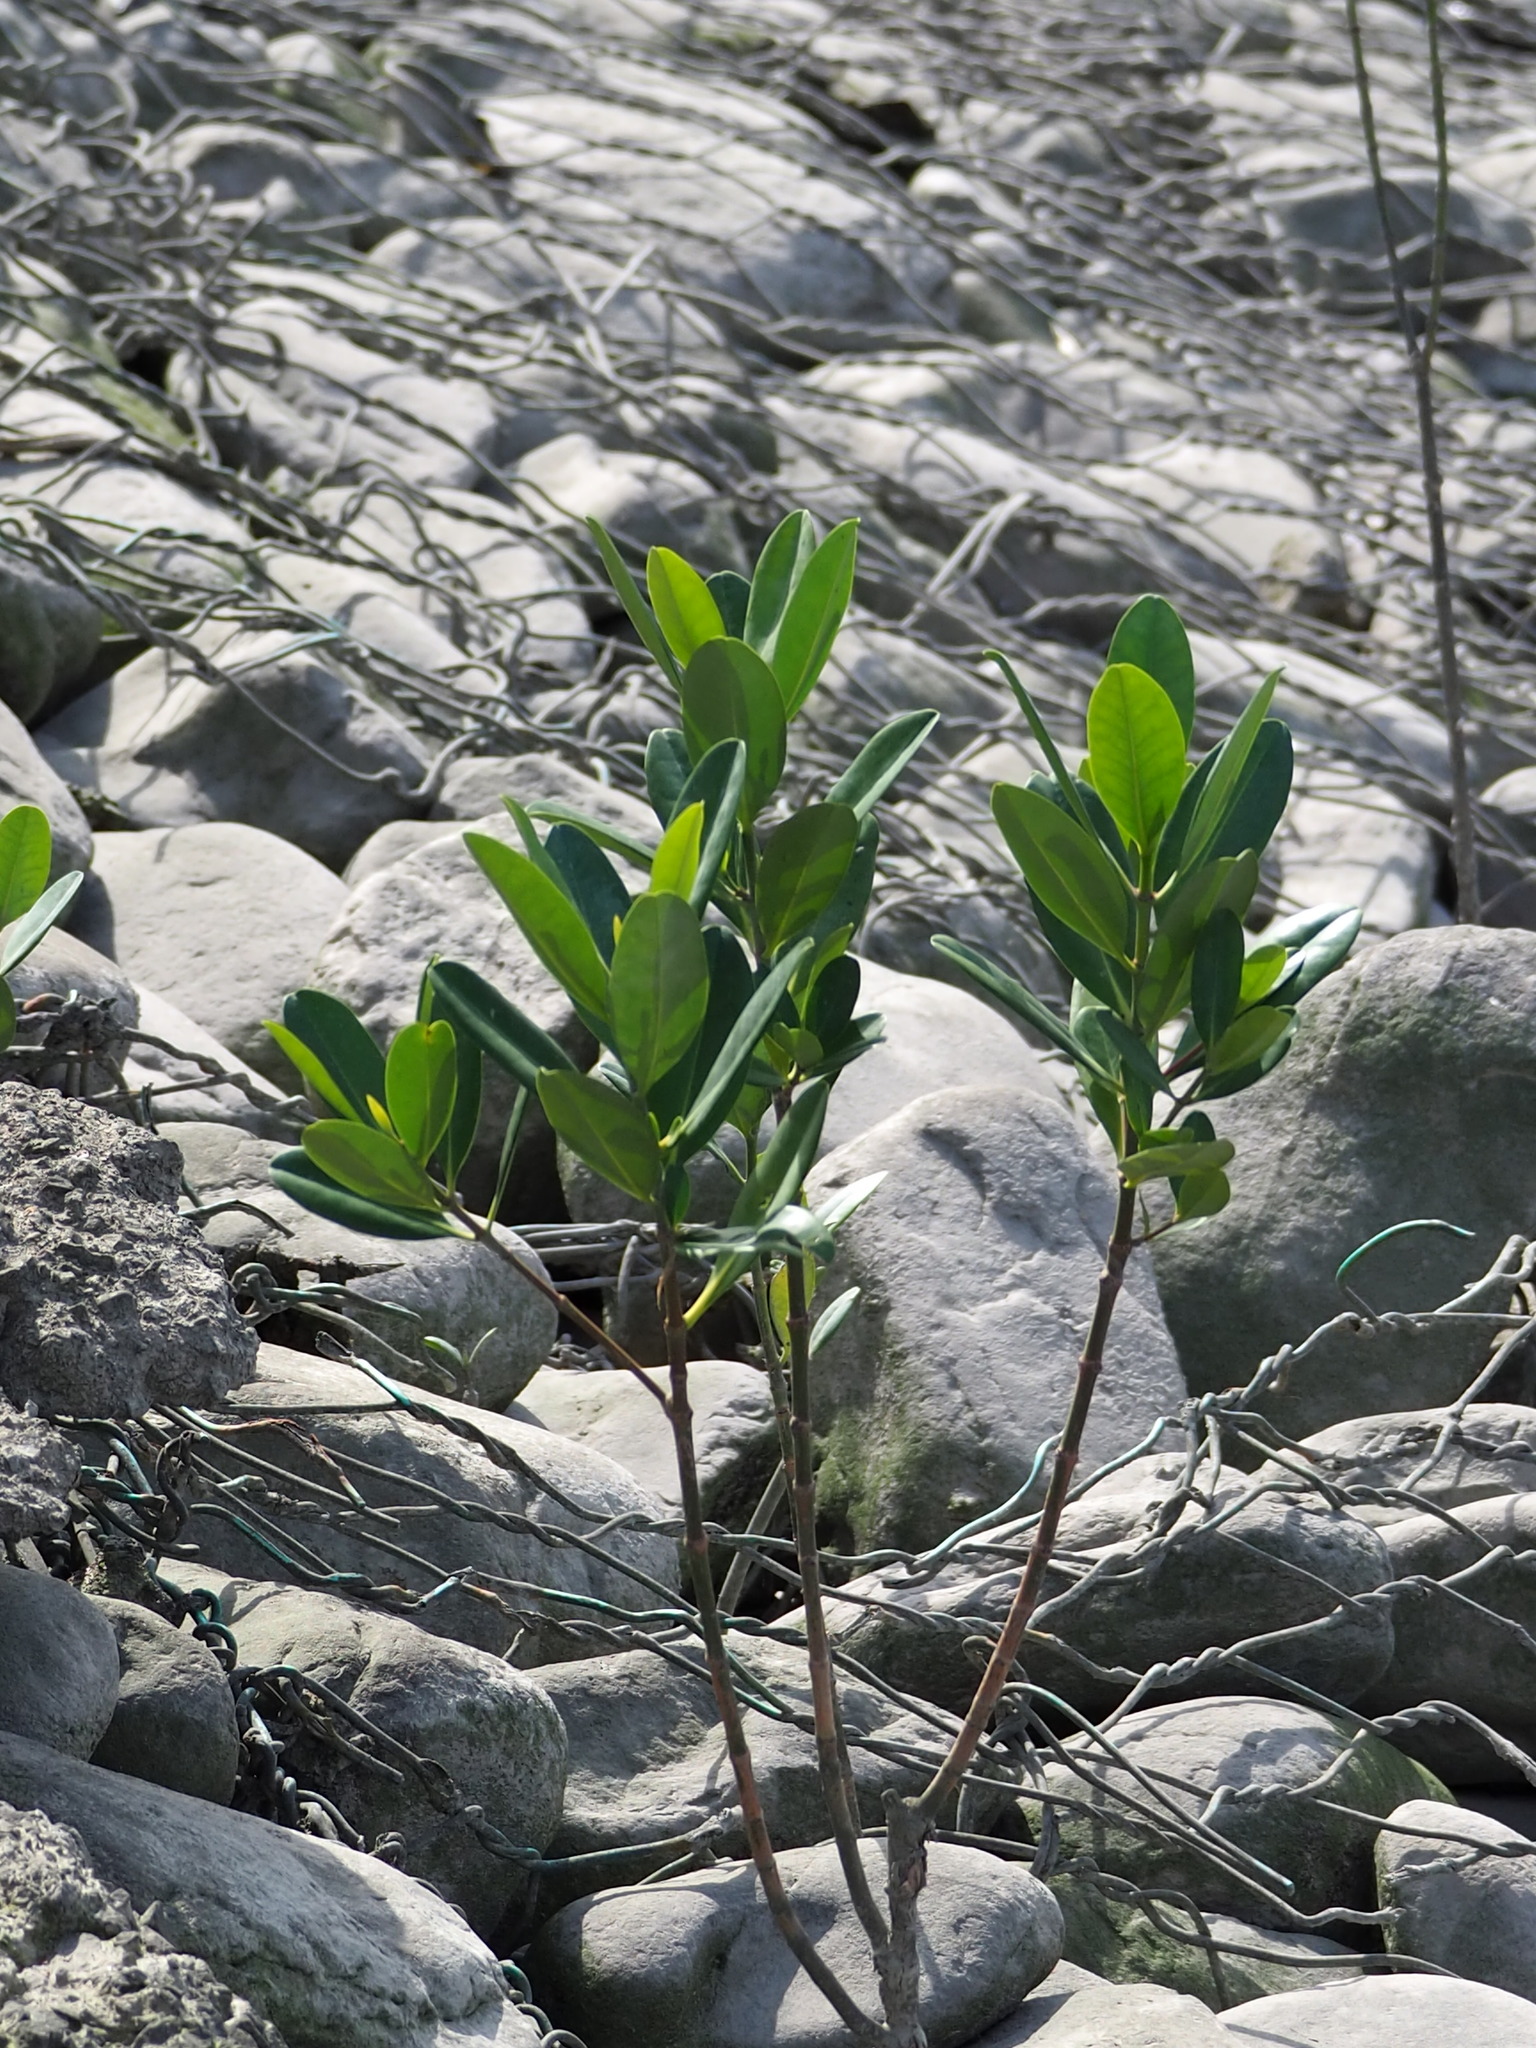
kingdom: Plantae
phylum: Tracheophyta
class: Magnoliopsida
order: Malpighiales
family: Rhizophoraceae
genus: Kandelia
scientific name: Kandelia obovata
